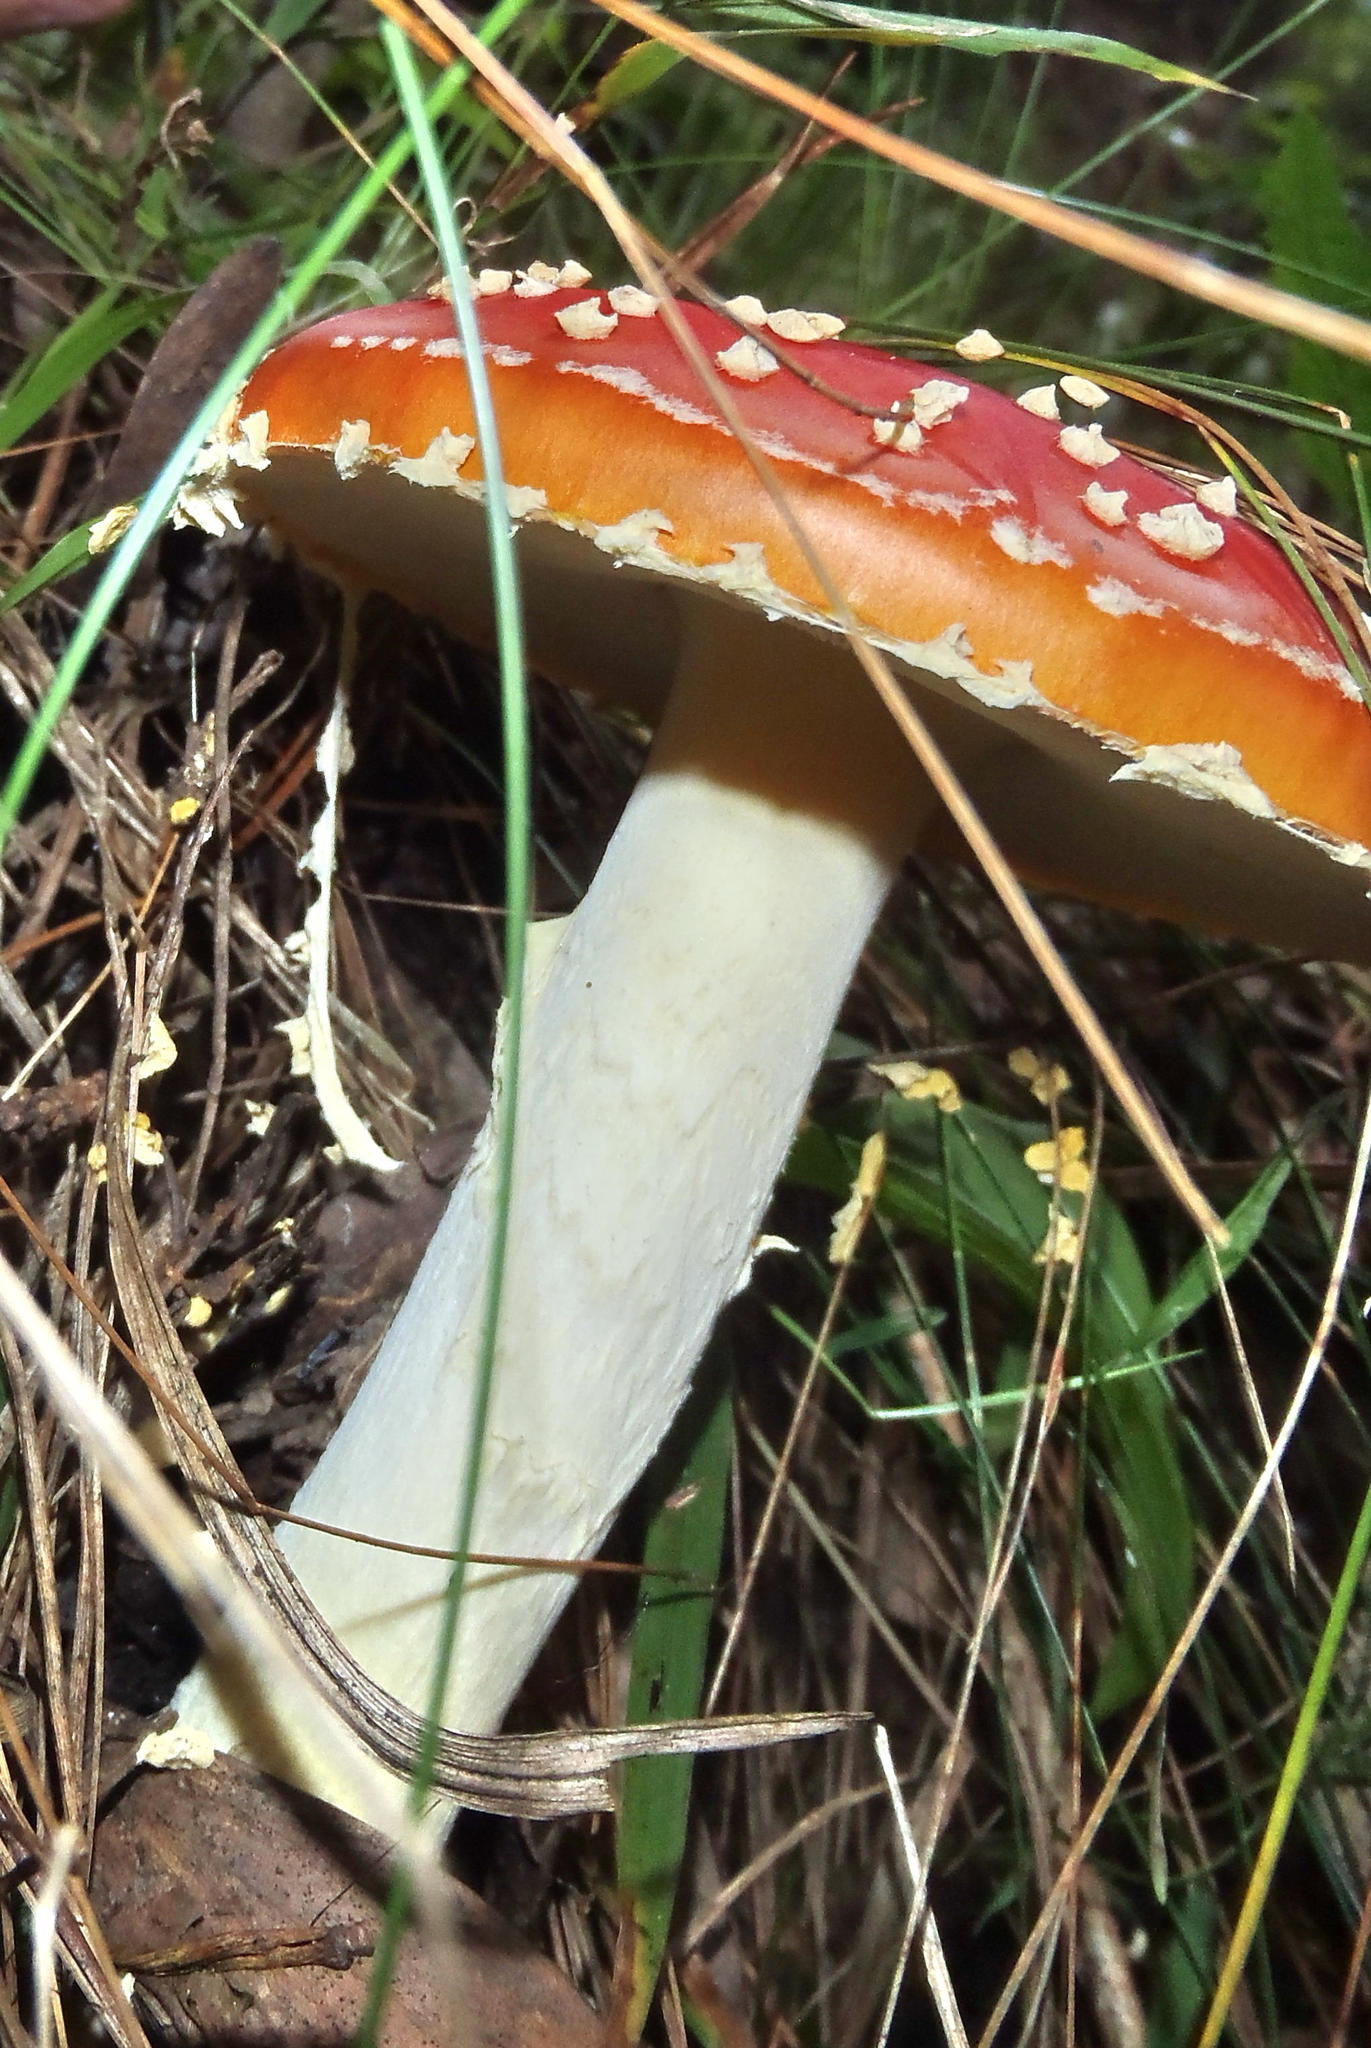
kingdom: Fungi
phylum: Basidiomycota
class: Agaricomycetes
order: Agaricales
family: Amanitaceae
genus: Amanita
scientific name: Amanita muscaria
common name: Fly agaric
